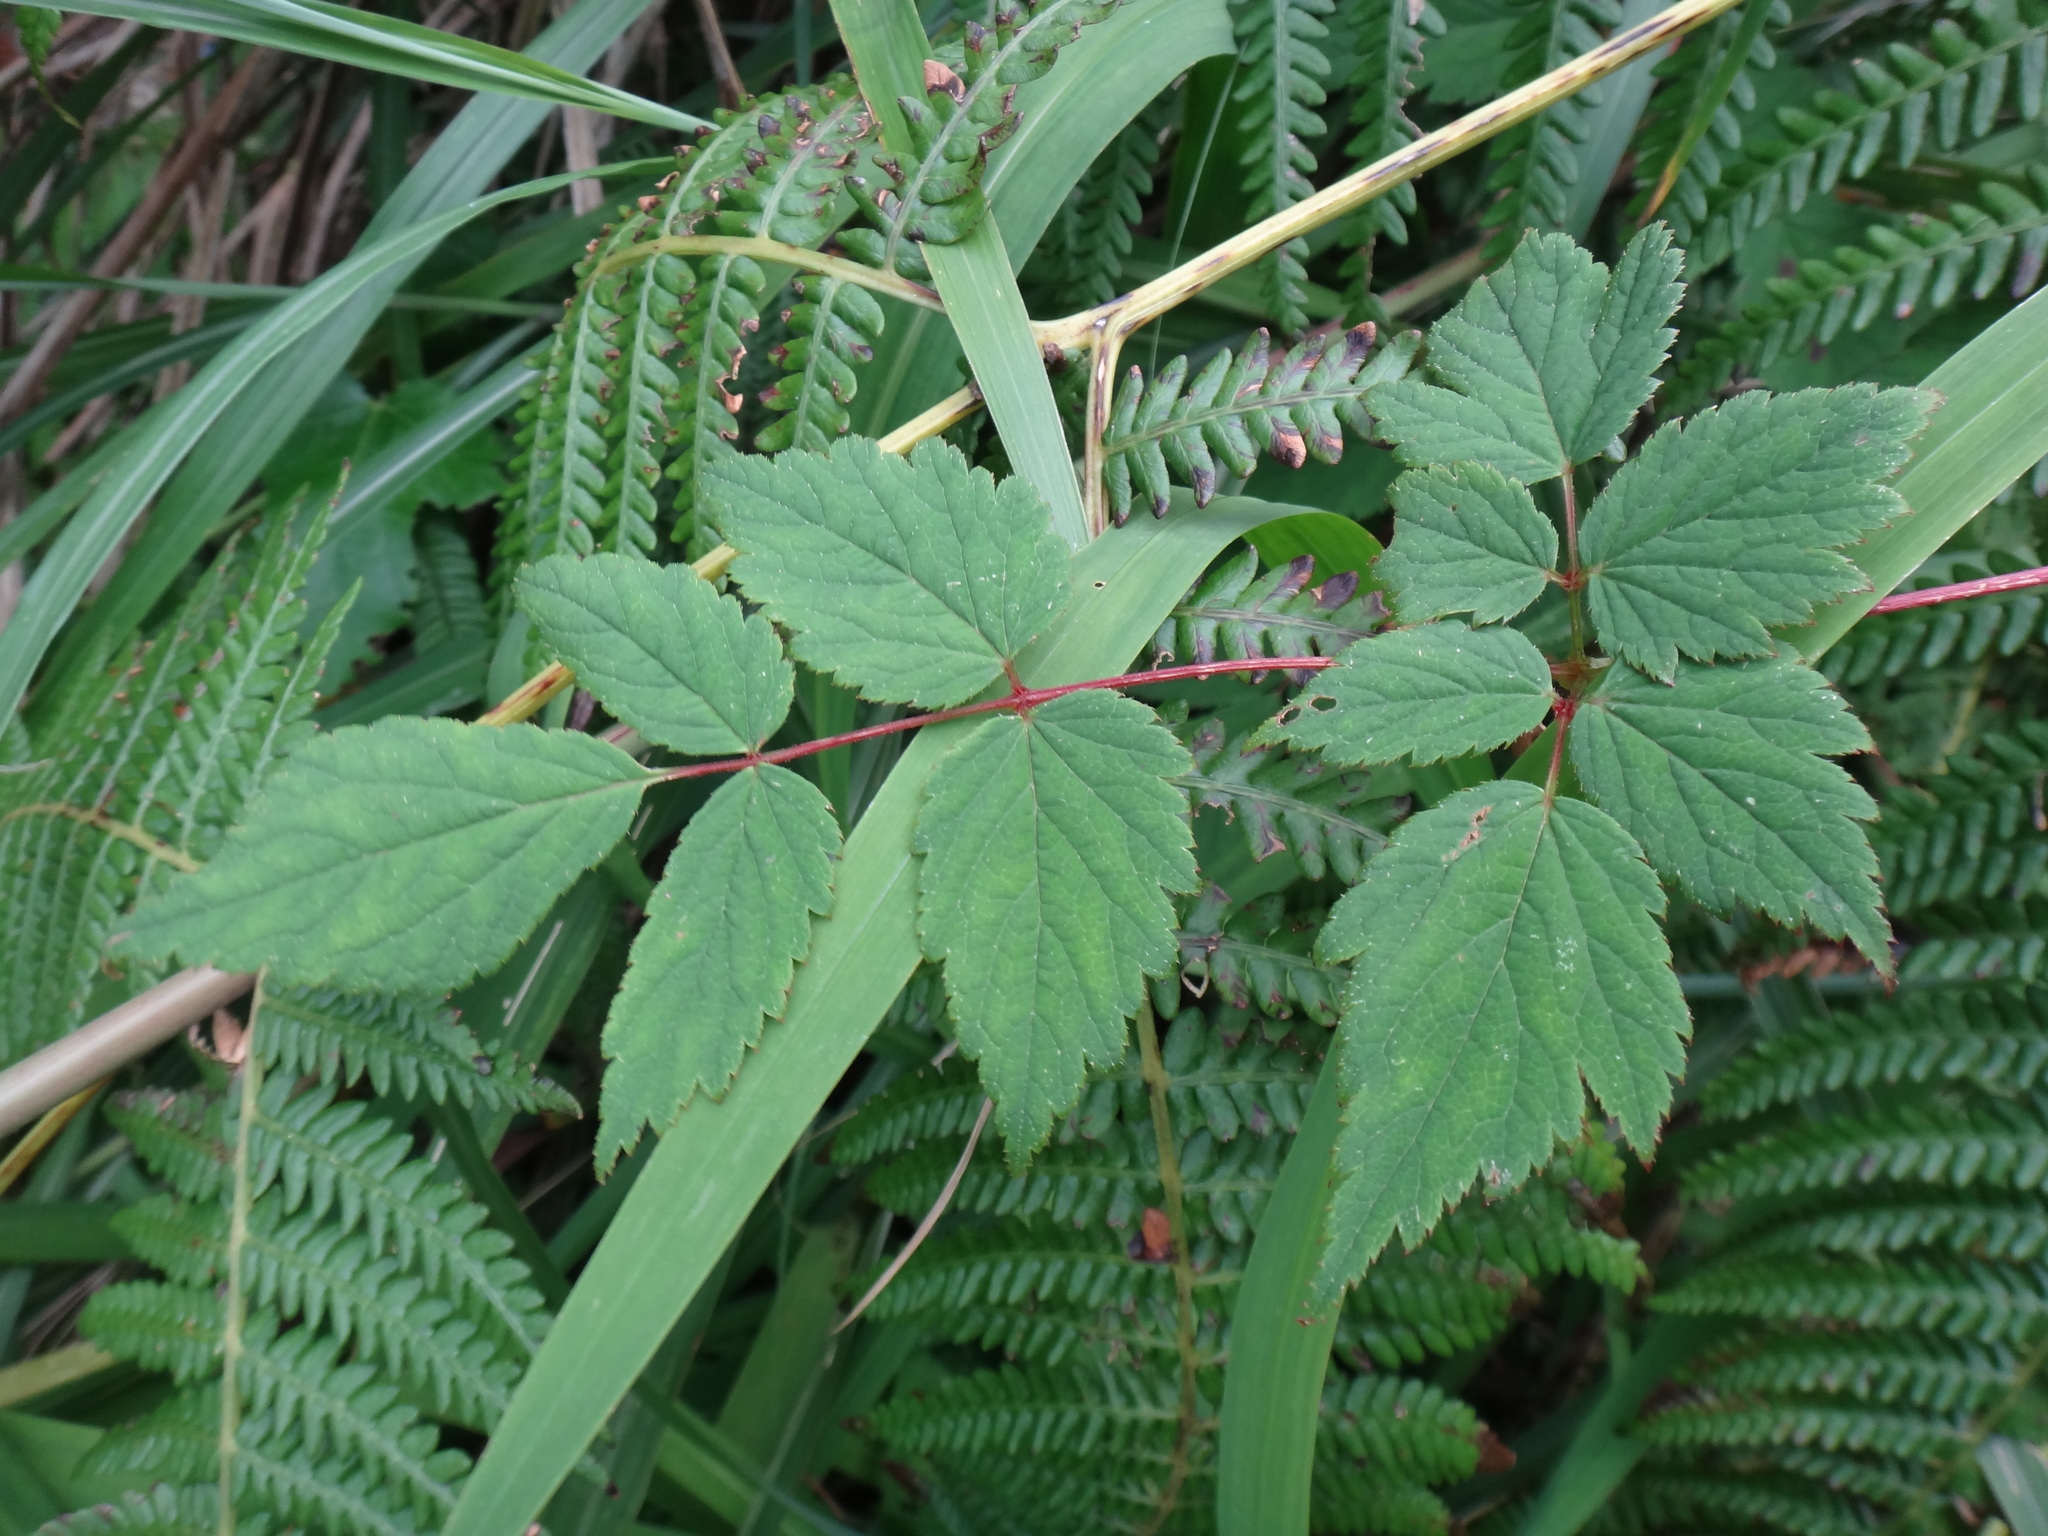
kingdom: Plantae
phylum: Tracheophyta
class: Magnoliopsida
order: Saxifragales
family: Saxifragaceae
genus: Astilbe
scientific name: Astilbe longicarpa
